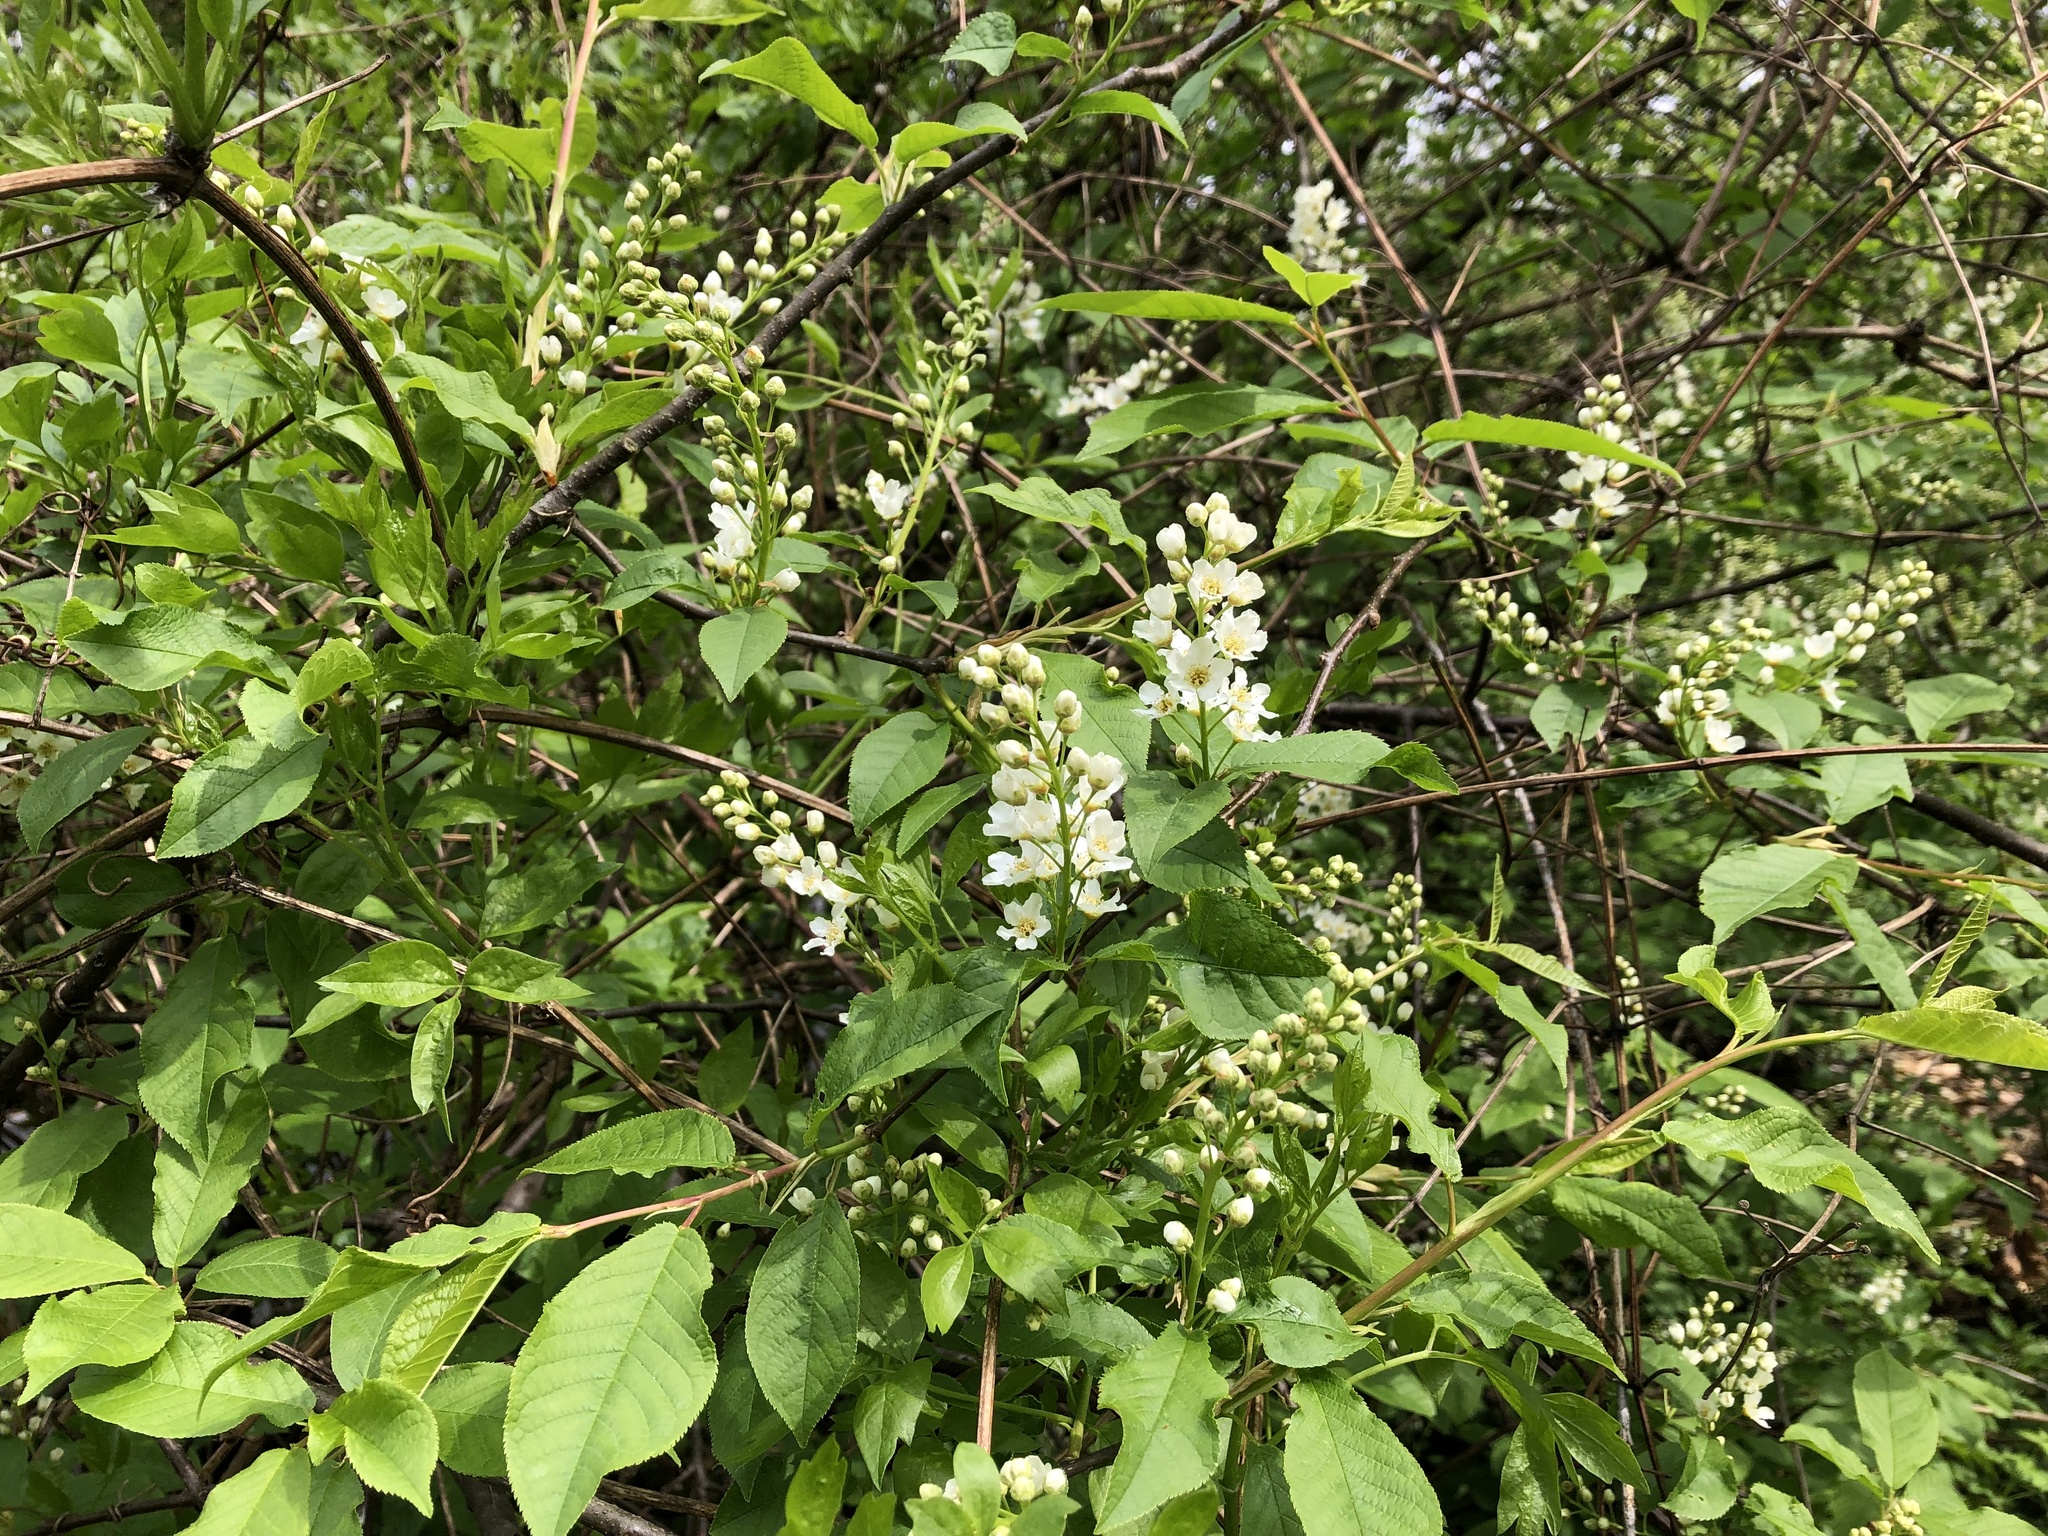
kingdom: Plantae
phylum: Tracheophyta
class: Magnoliopsida
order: Rosales
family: Rosaceae
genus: Prunus
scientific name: Prunus padus
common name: Bird cherry
